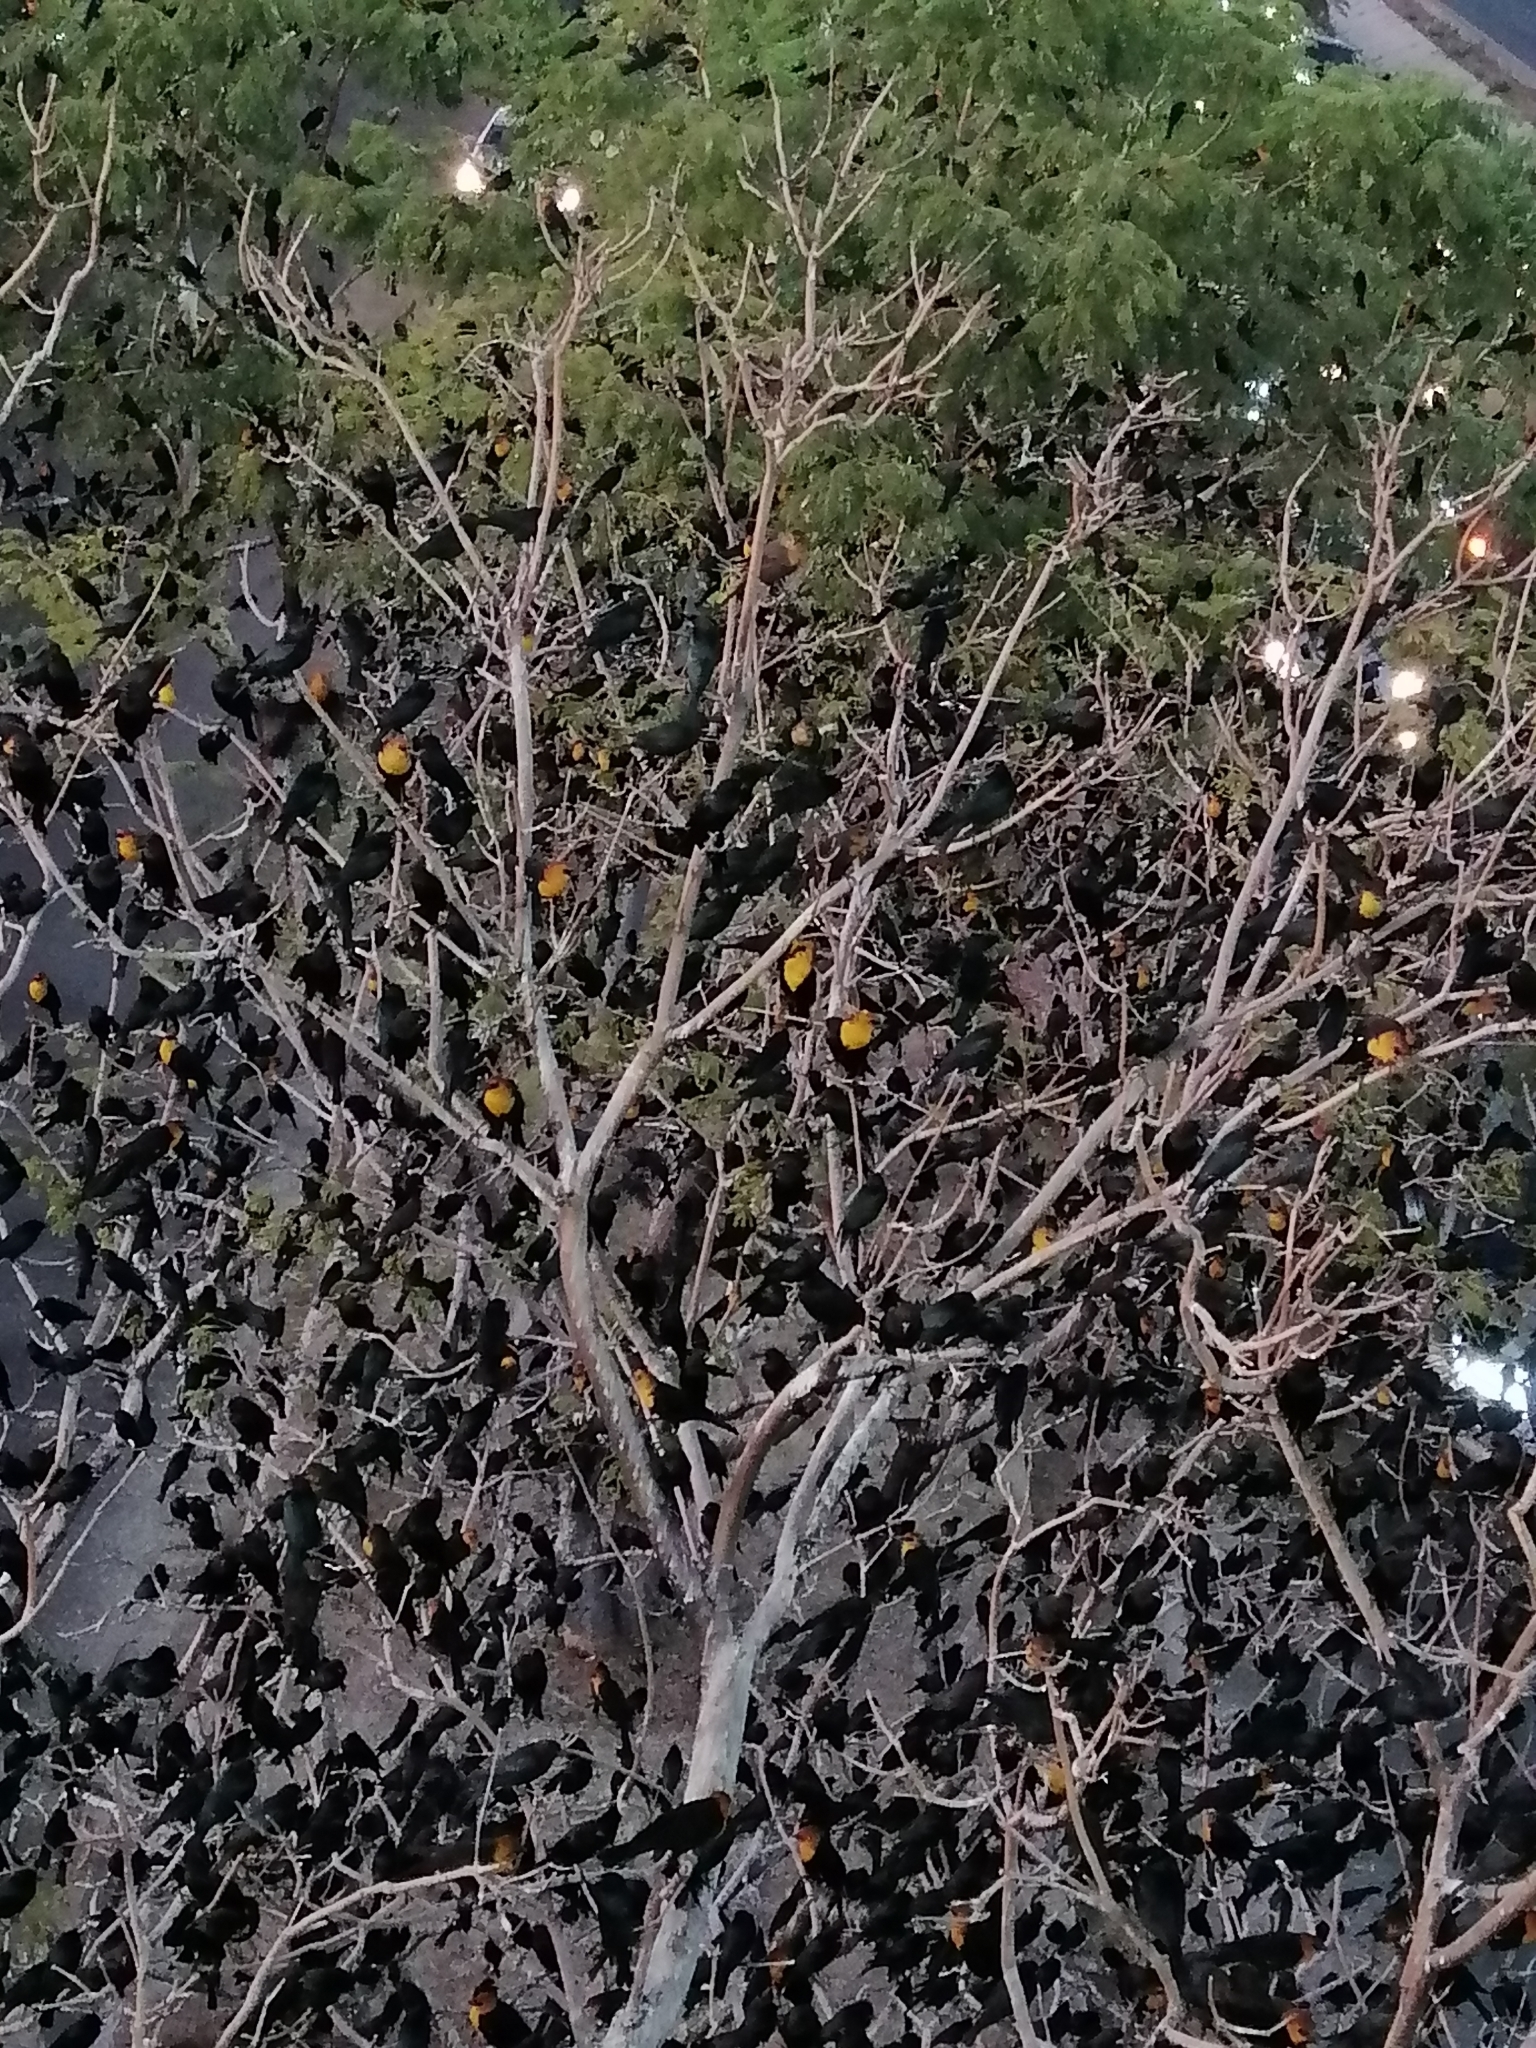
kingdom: Animalia
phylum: Chordata
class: Aves
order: Passeriformes
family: Icteridae
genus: Xanthocephalus
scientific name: Xanthocephalus xanthocephalus
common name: Yellow-headed blackbird
